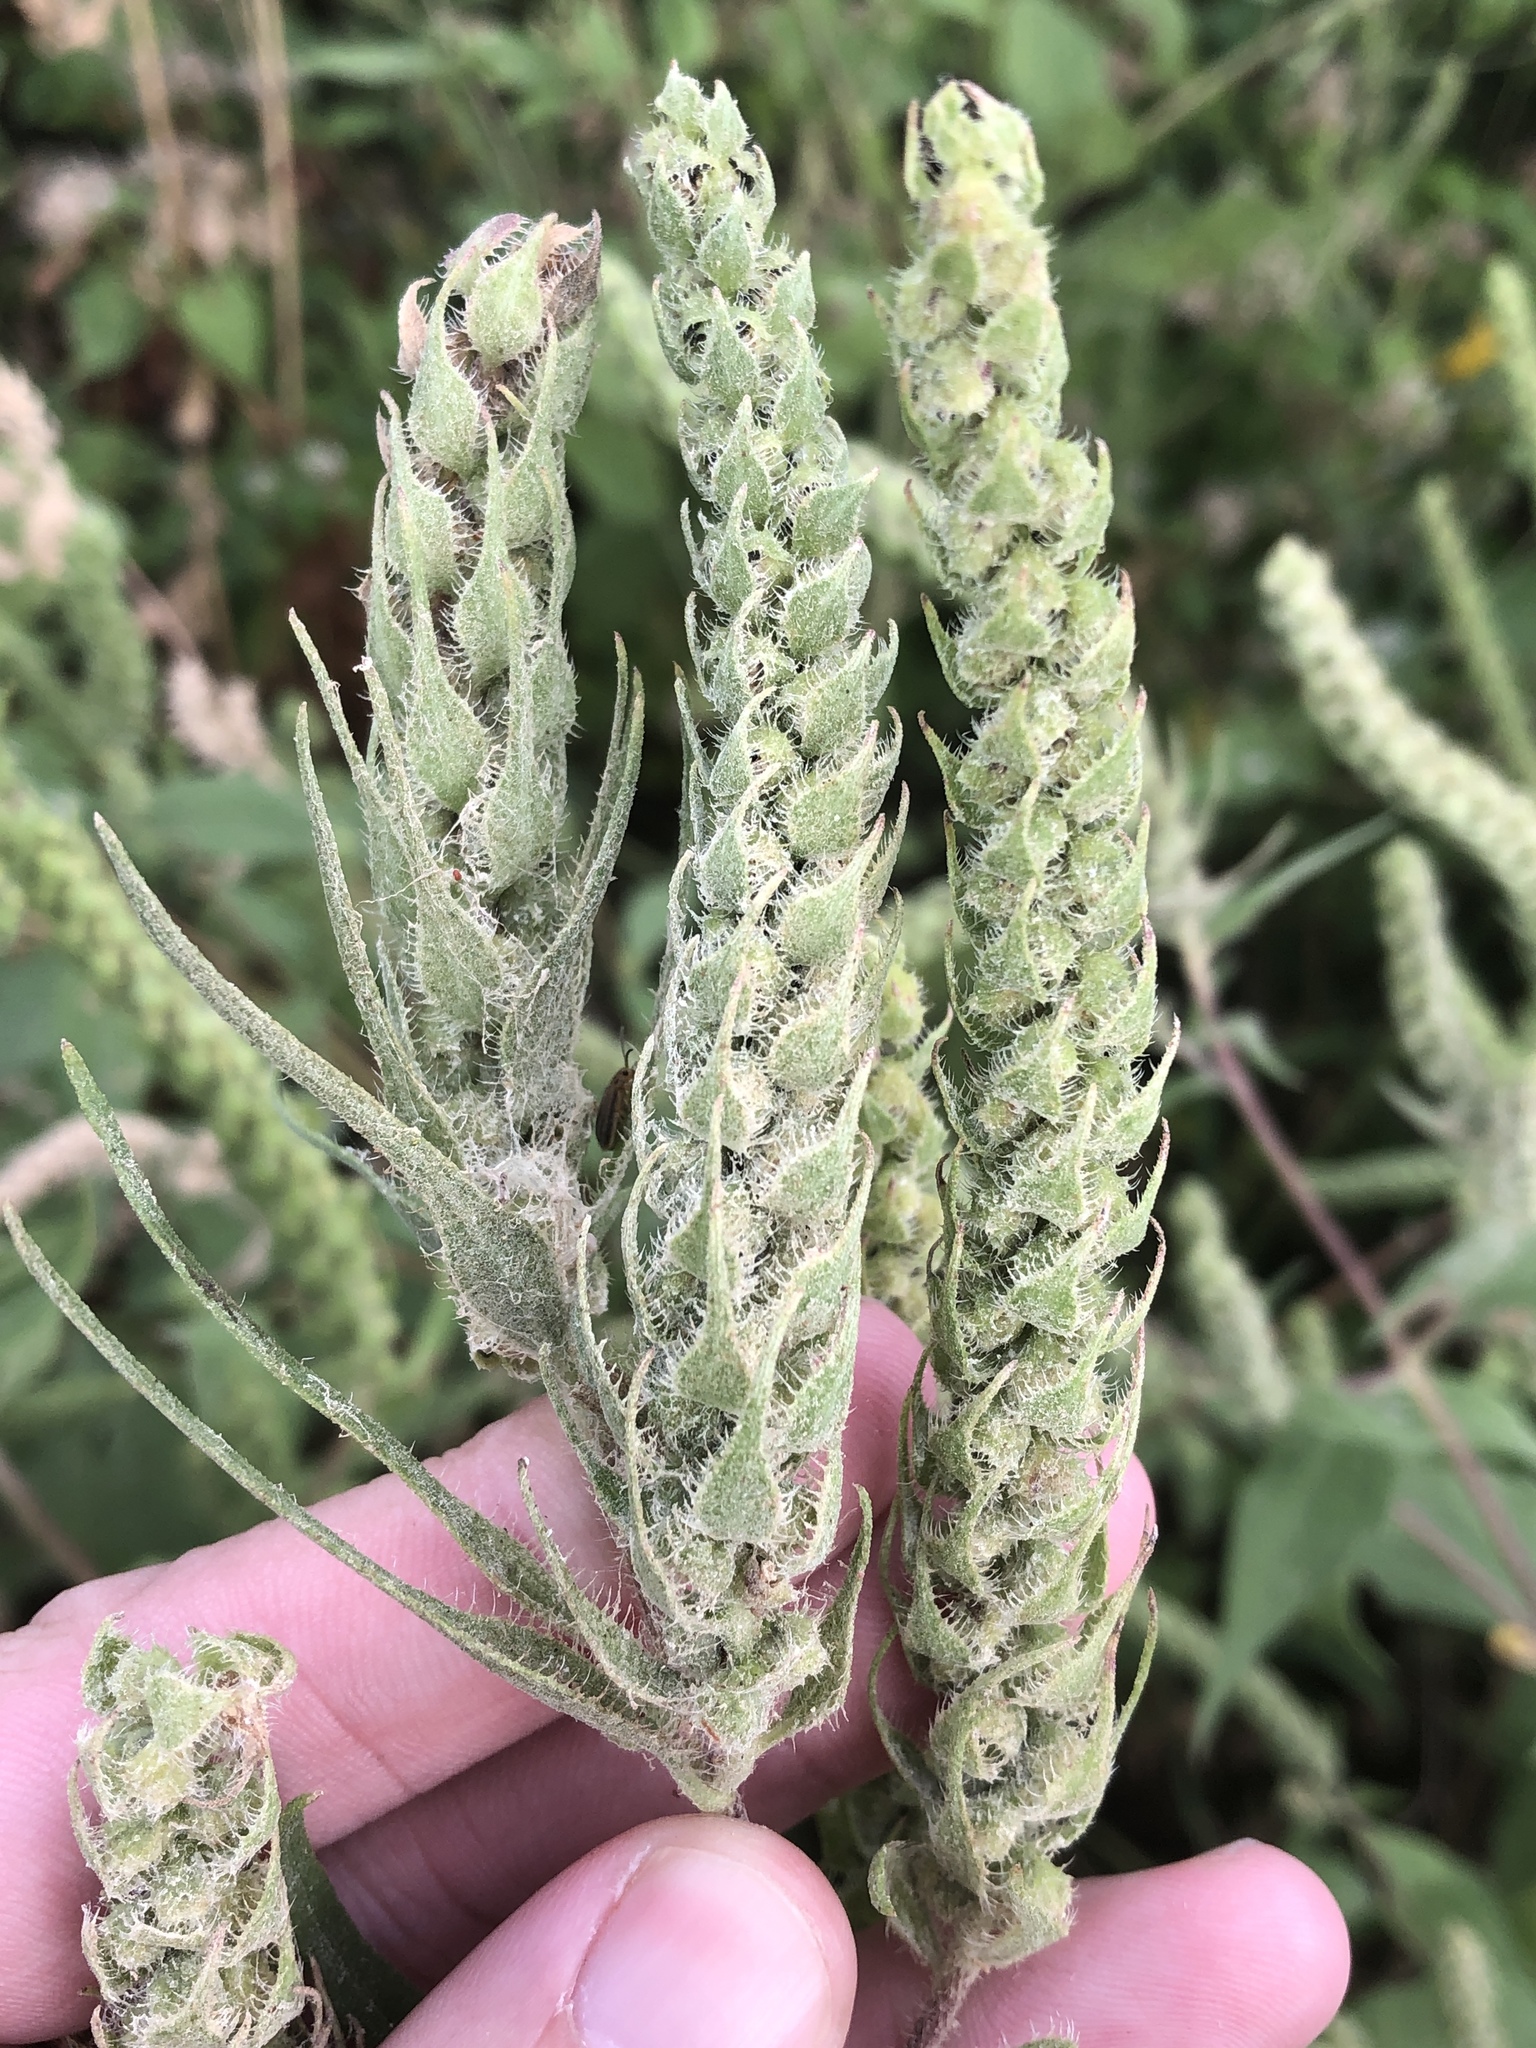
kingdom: Plantae
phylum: Tracheophyta
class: Magnoliopsida
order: Asterales
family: Asteraceae
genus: Iva
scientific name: Iva annua
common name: Marsh-elder
